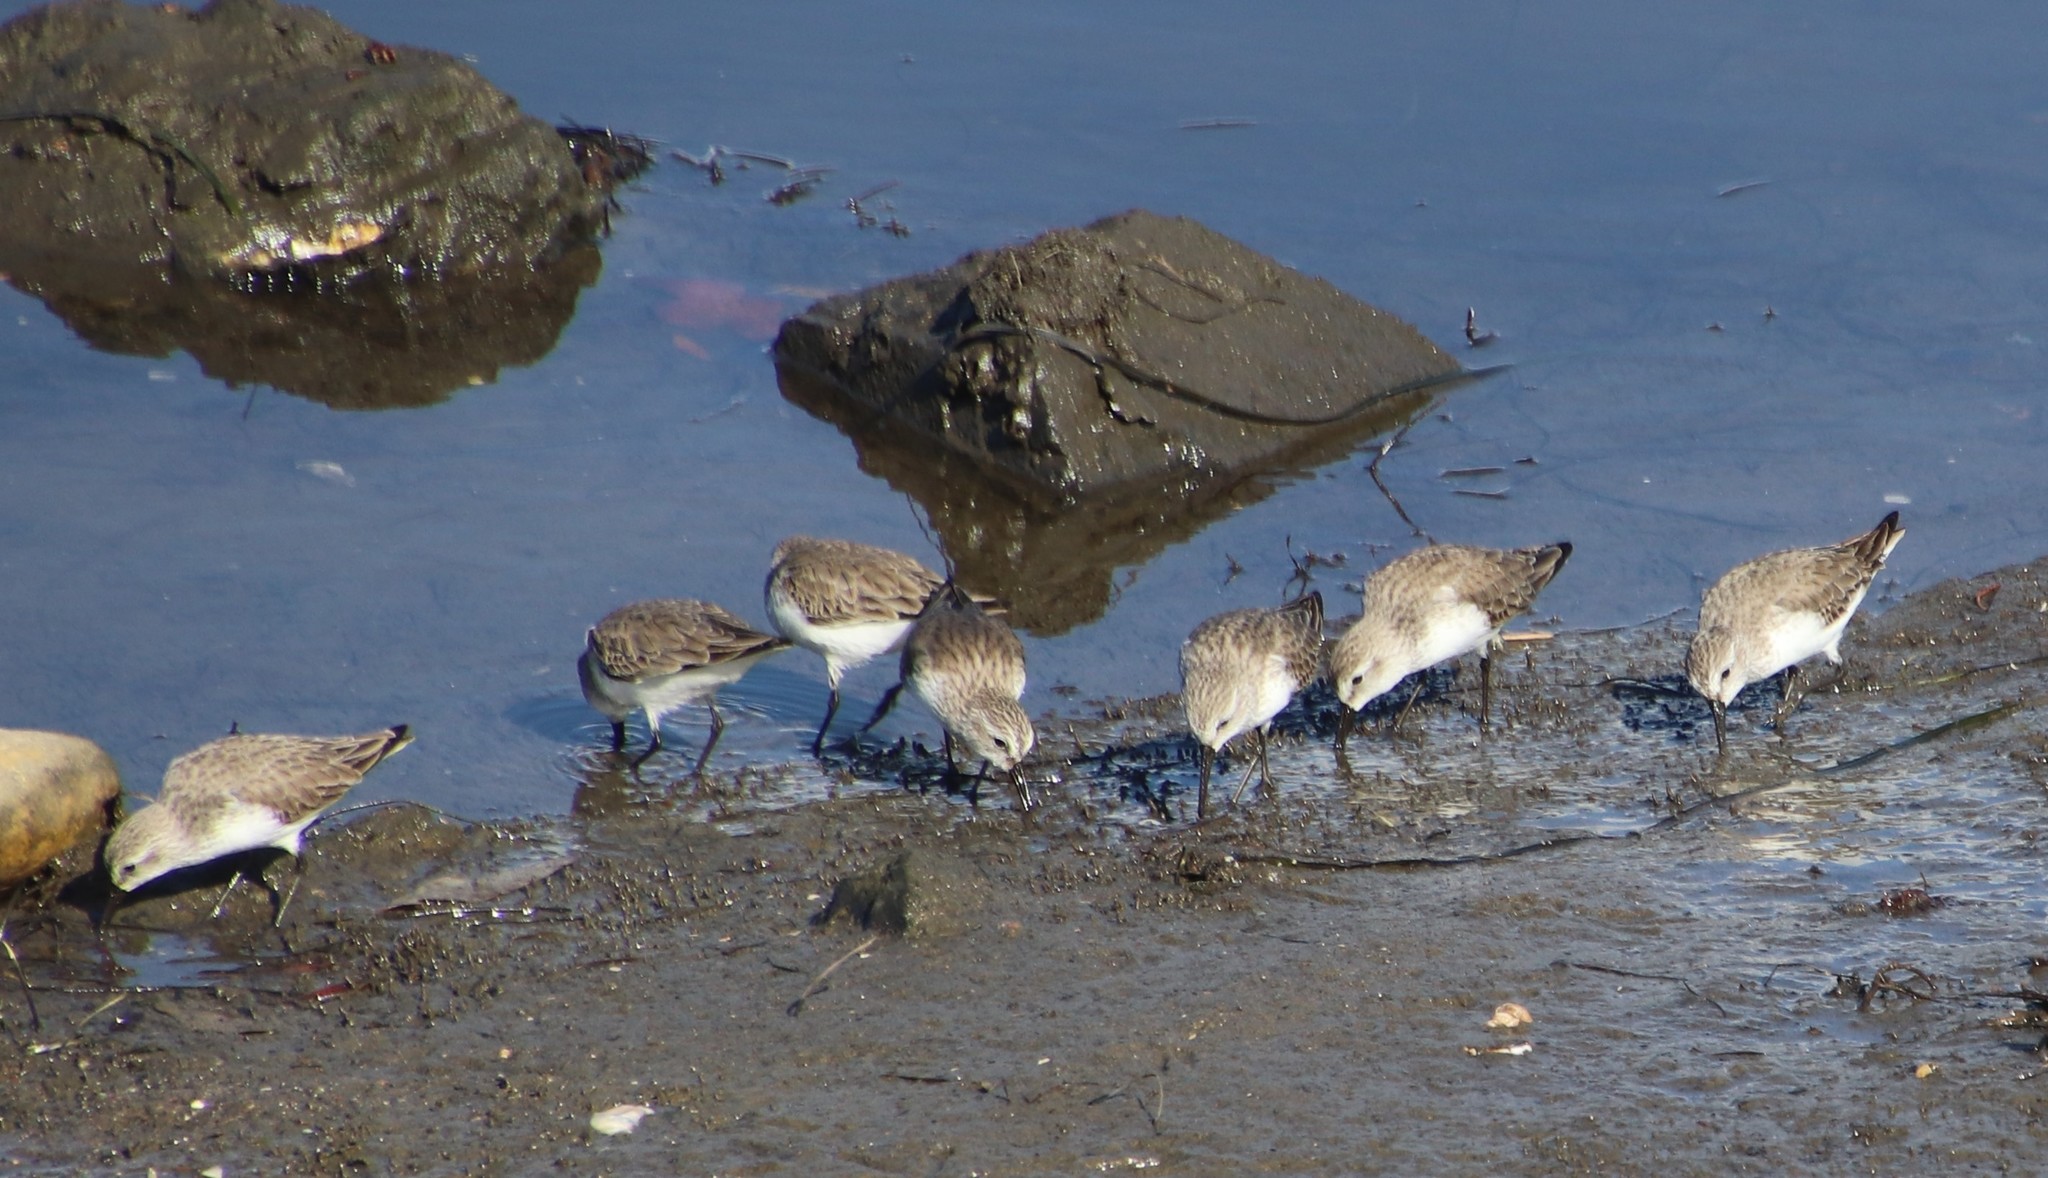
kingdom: Animalia
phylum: Chordata
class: Aves
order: Charadriiformes
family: Scolopacidae
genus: Calidris
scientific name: Calidris mauri
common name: Western sandpiper
